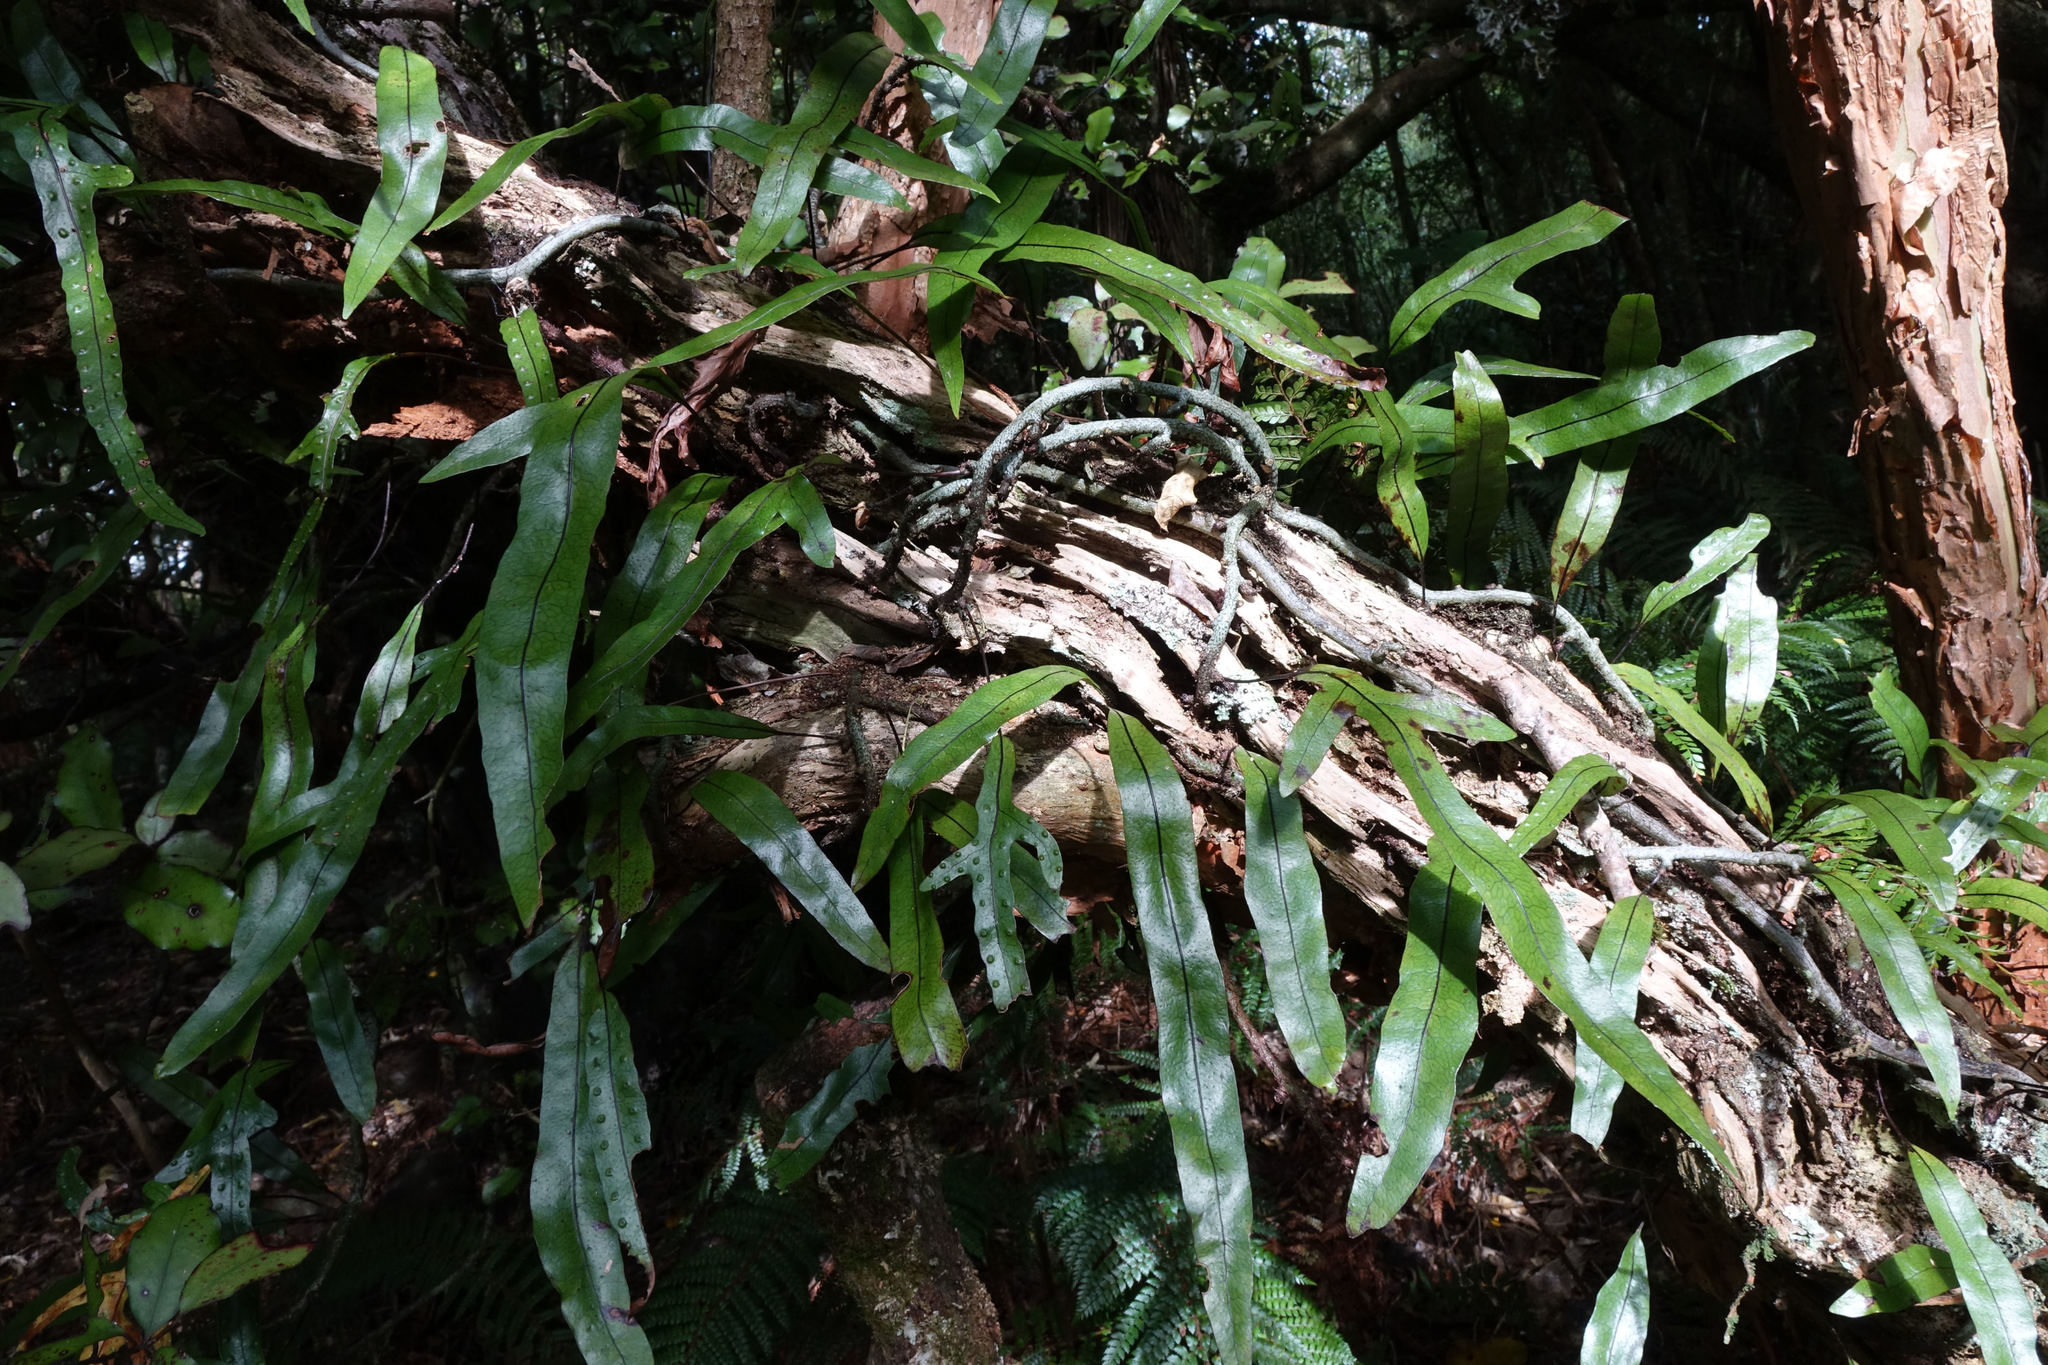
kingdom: Plantae
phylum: Tracheophyta
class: Polypodiopsida
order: Polypodiales
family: Polypodiaceae
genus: Lecanopteris
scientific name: Lecanopteris pustulata
